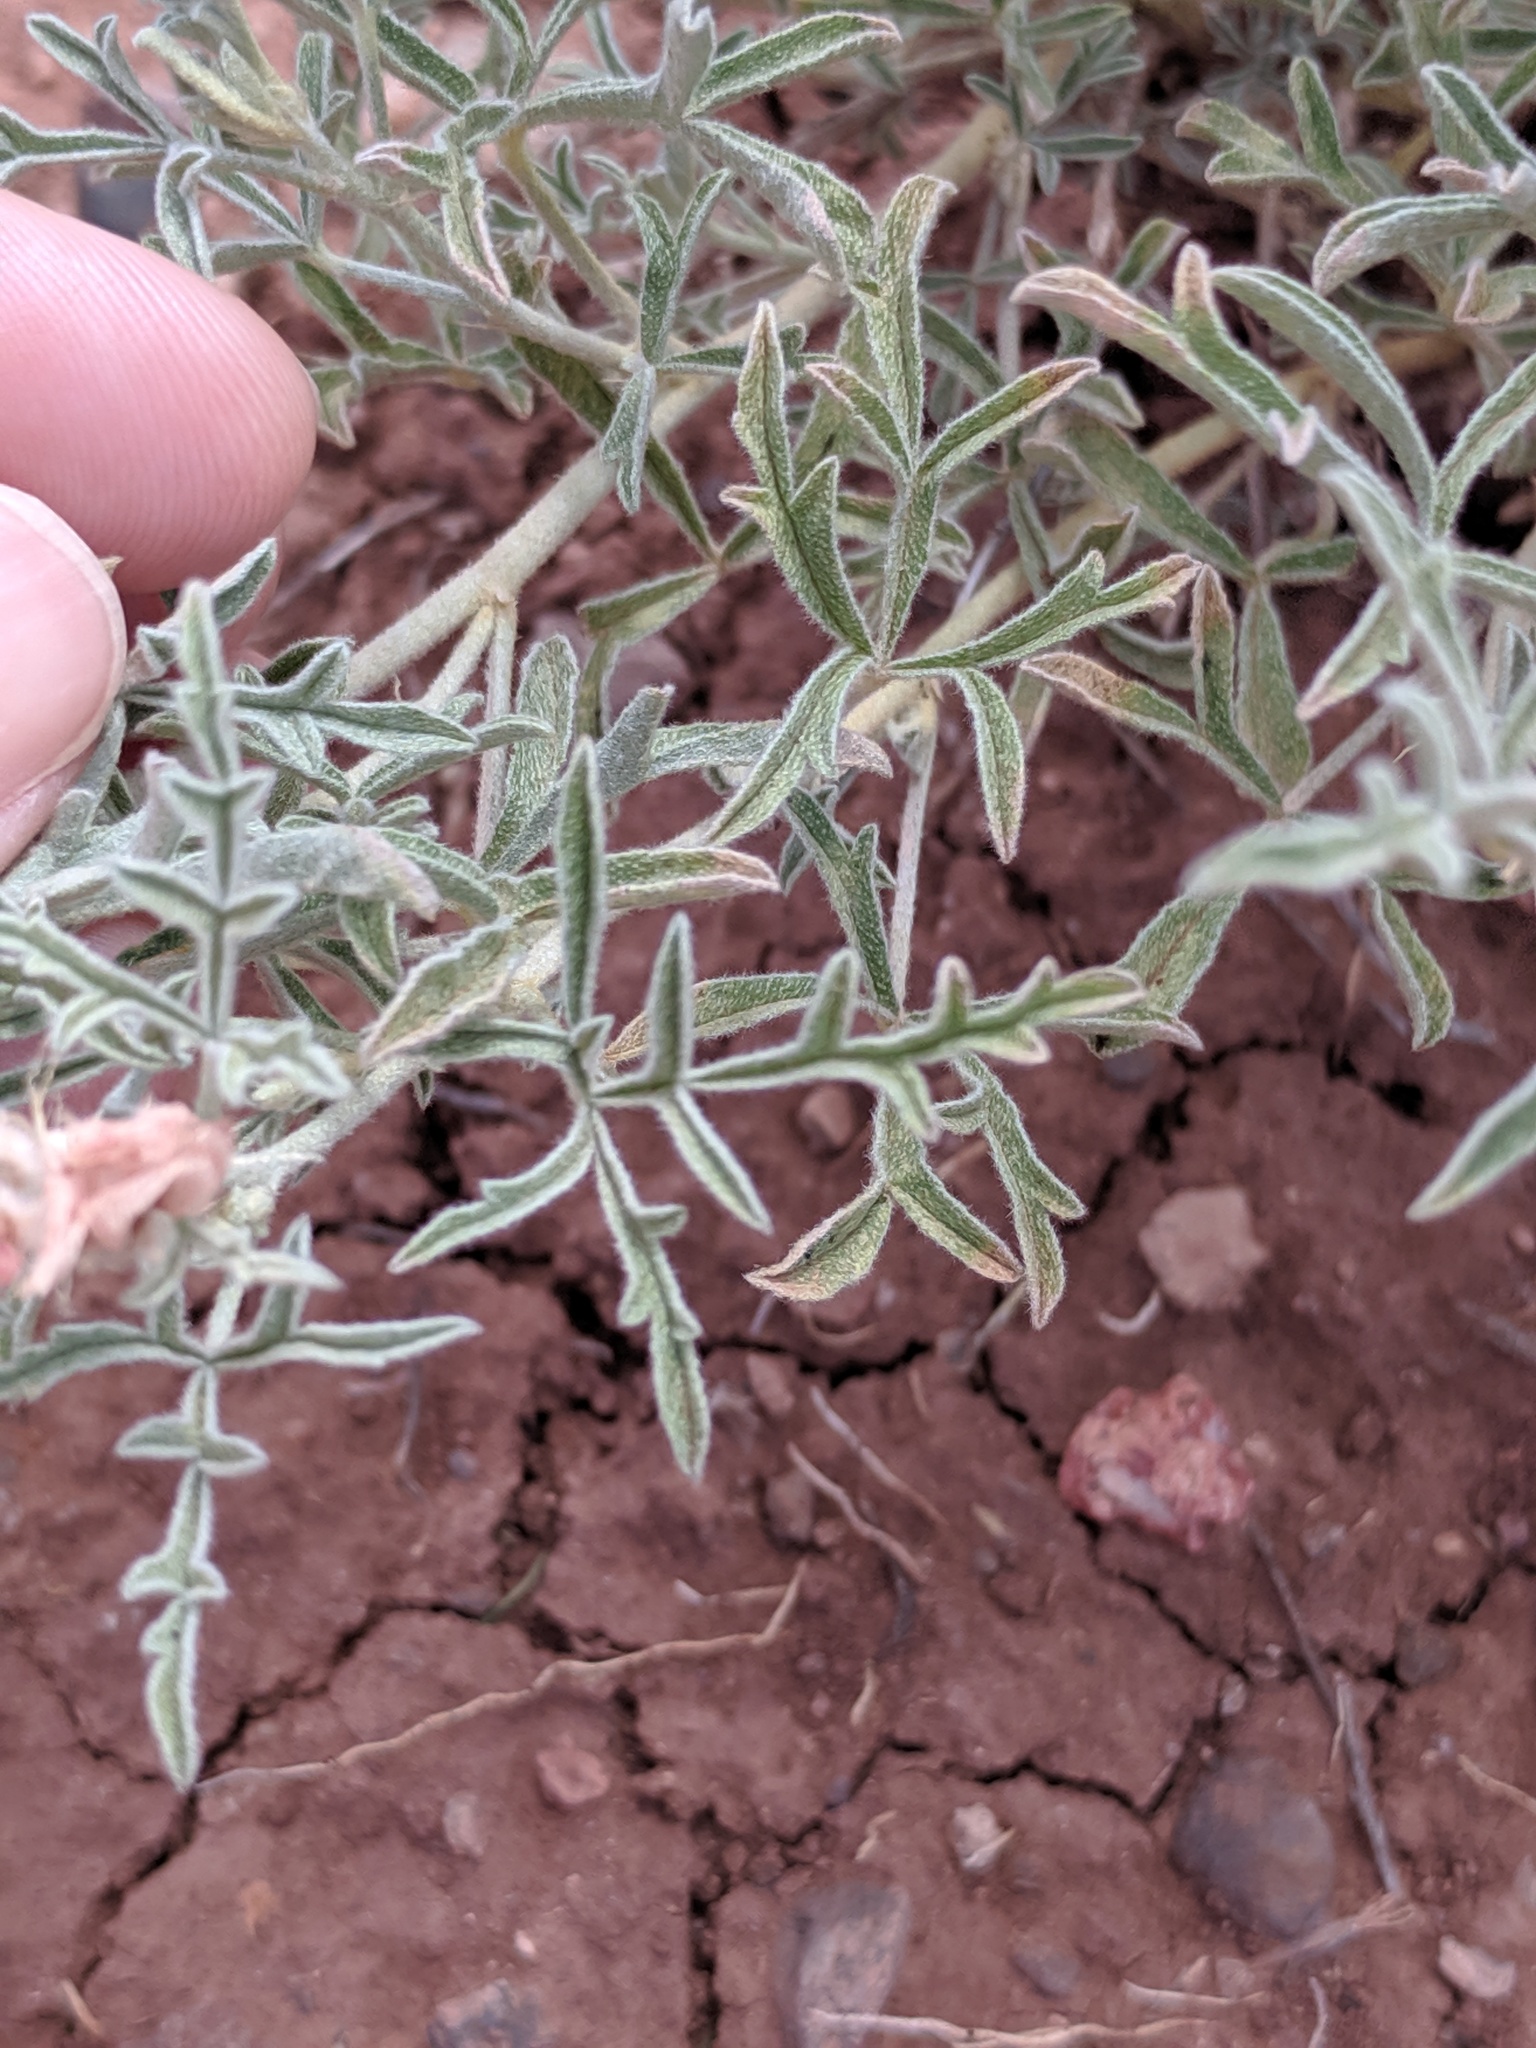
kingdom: Plantae
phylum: Tracheophyta
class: Magnoliopsida
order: Malvales
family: Malvaceae
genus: Sphaeralcea
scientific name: Sphaeralcea coccinea
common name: Moss-rose
